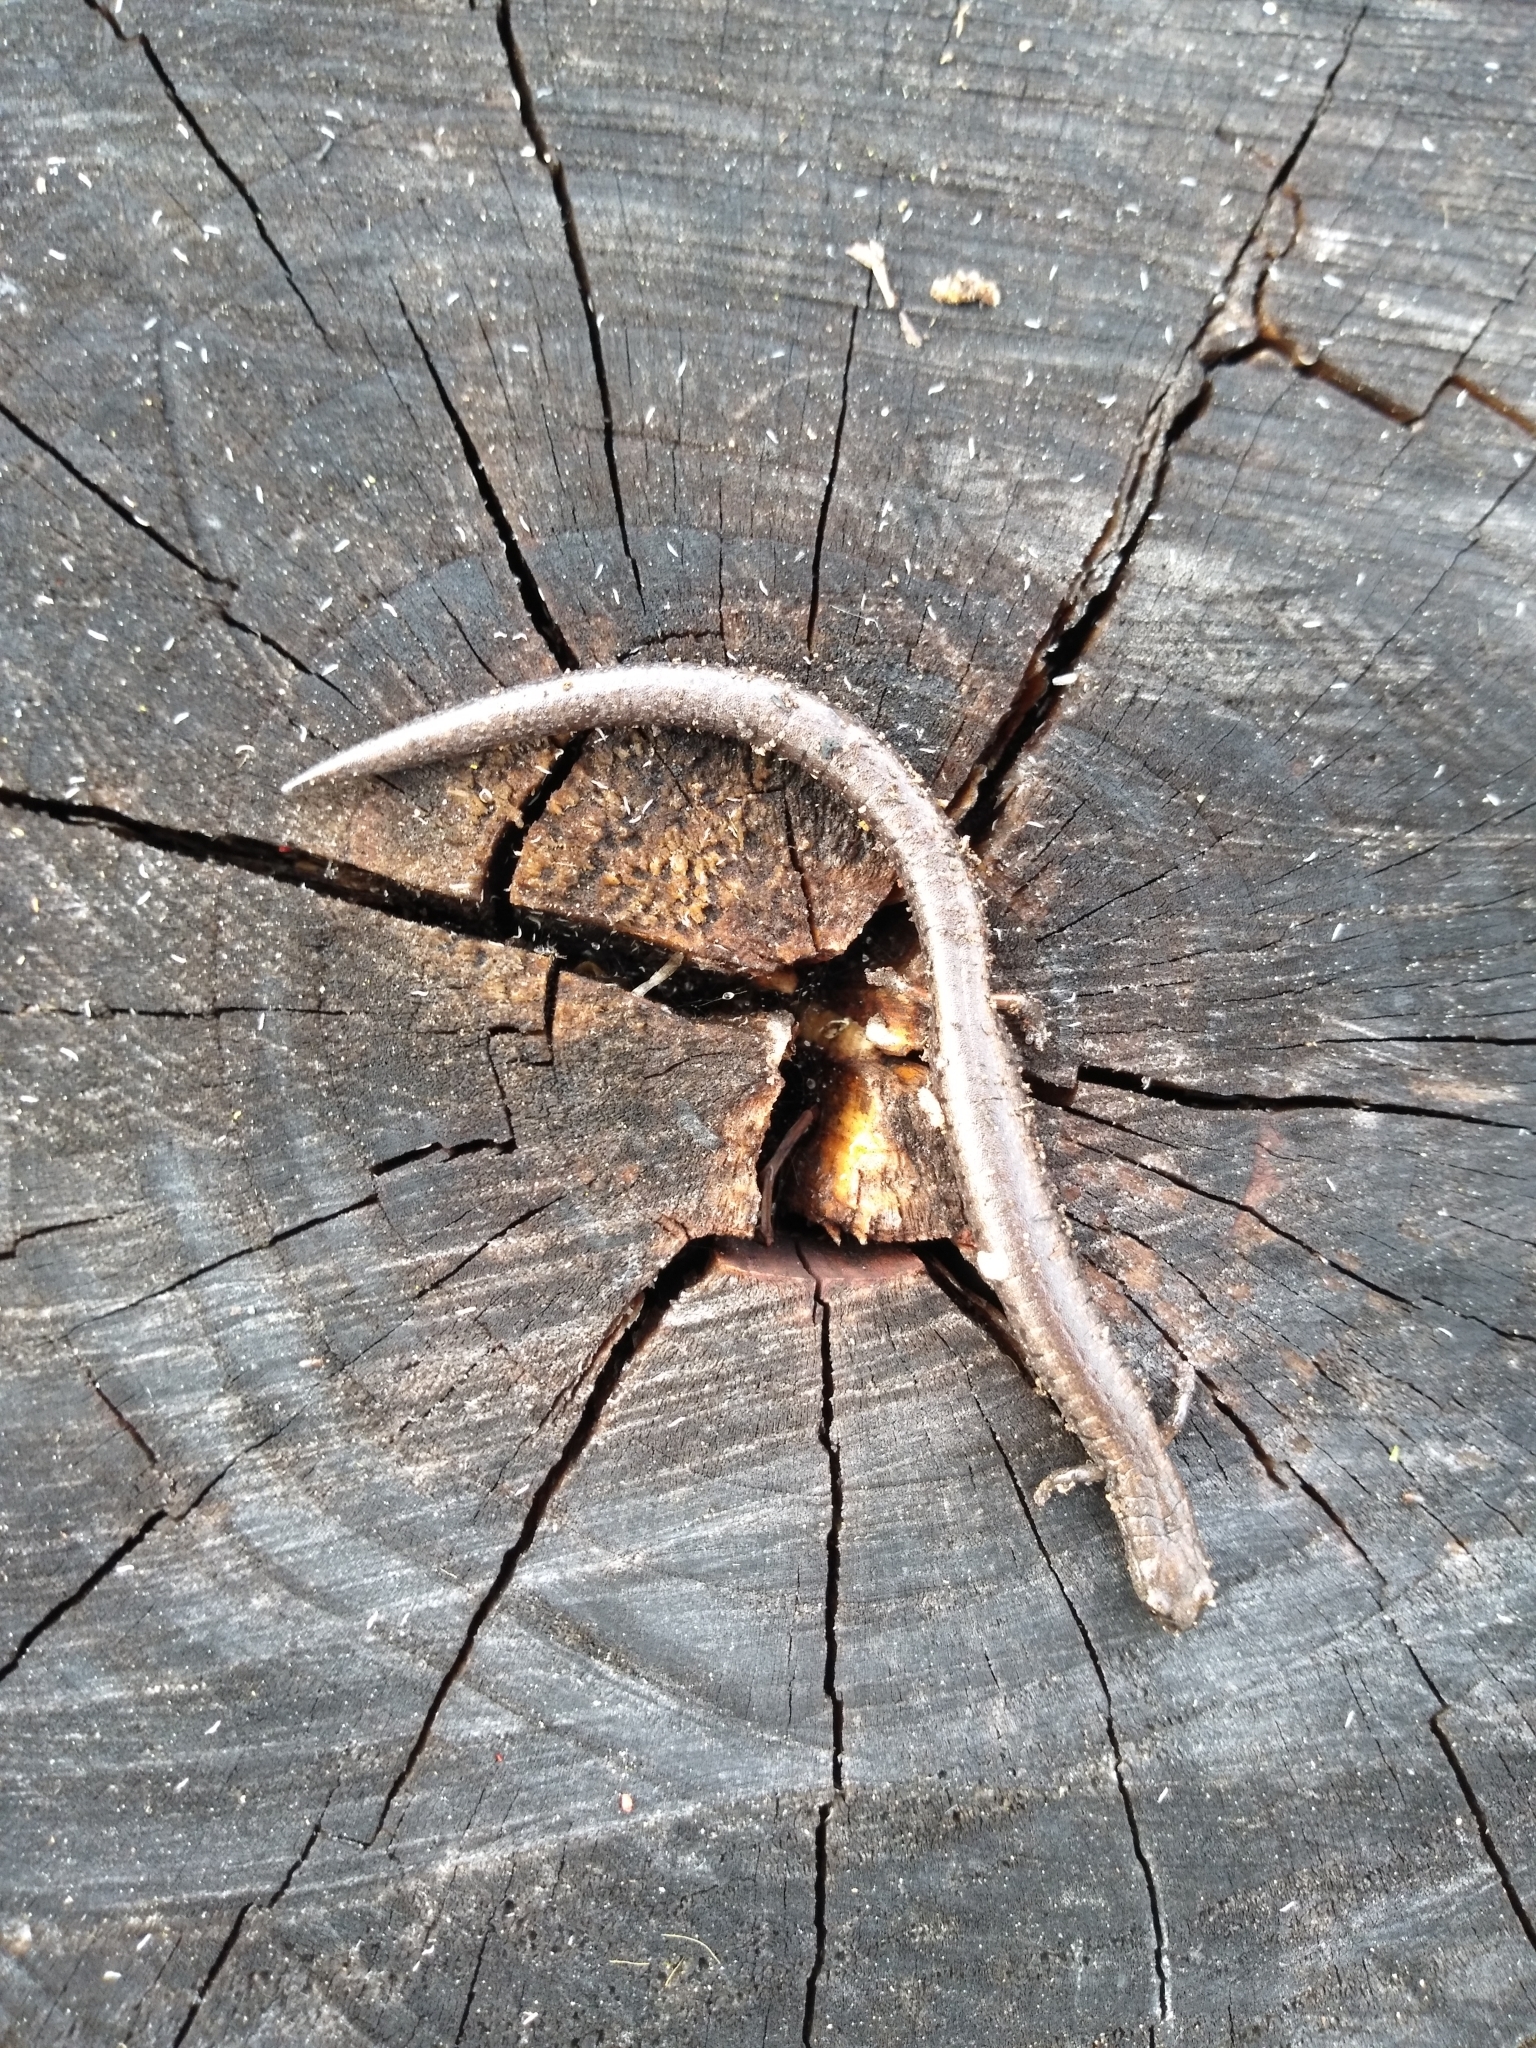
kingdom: Animalia
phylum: Chordata
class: Amphibia
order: Caudata
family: Plethodontidae
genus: Batrachoseps
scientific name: Batrachoseps attenuatus
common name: California slender salamander
